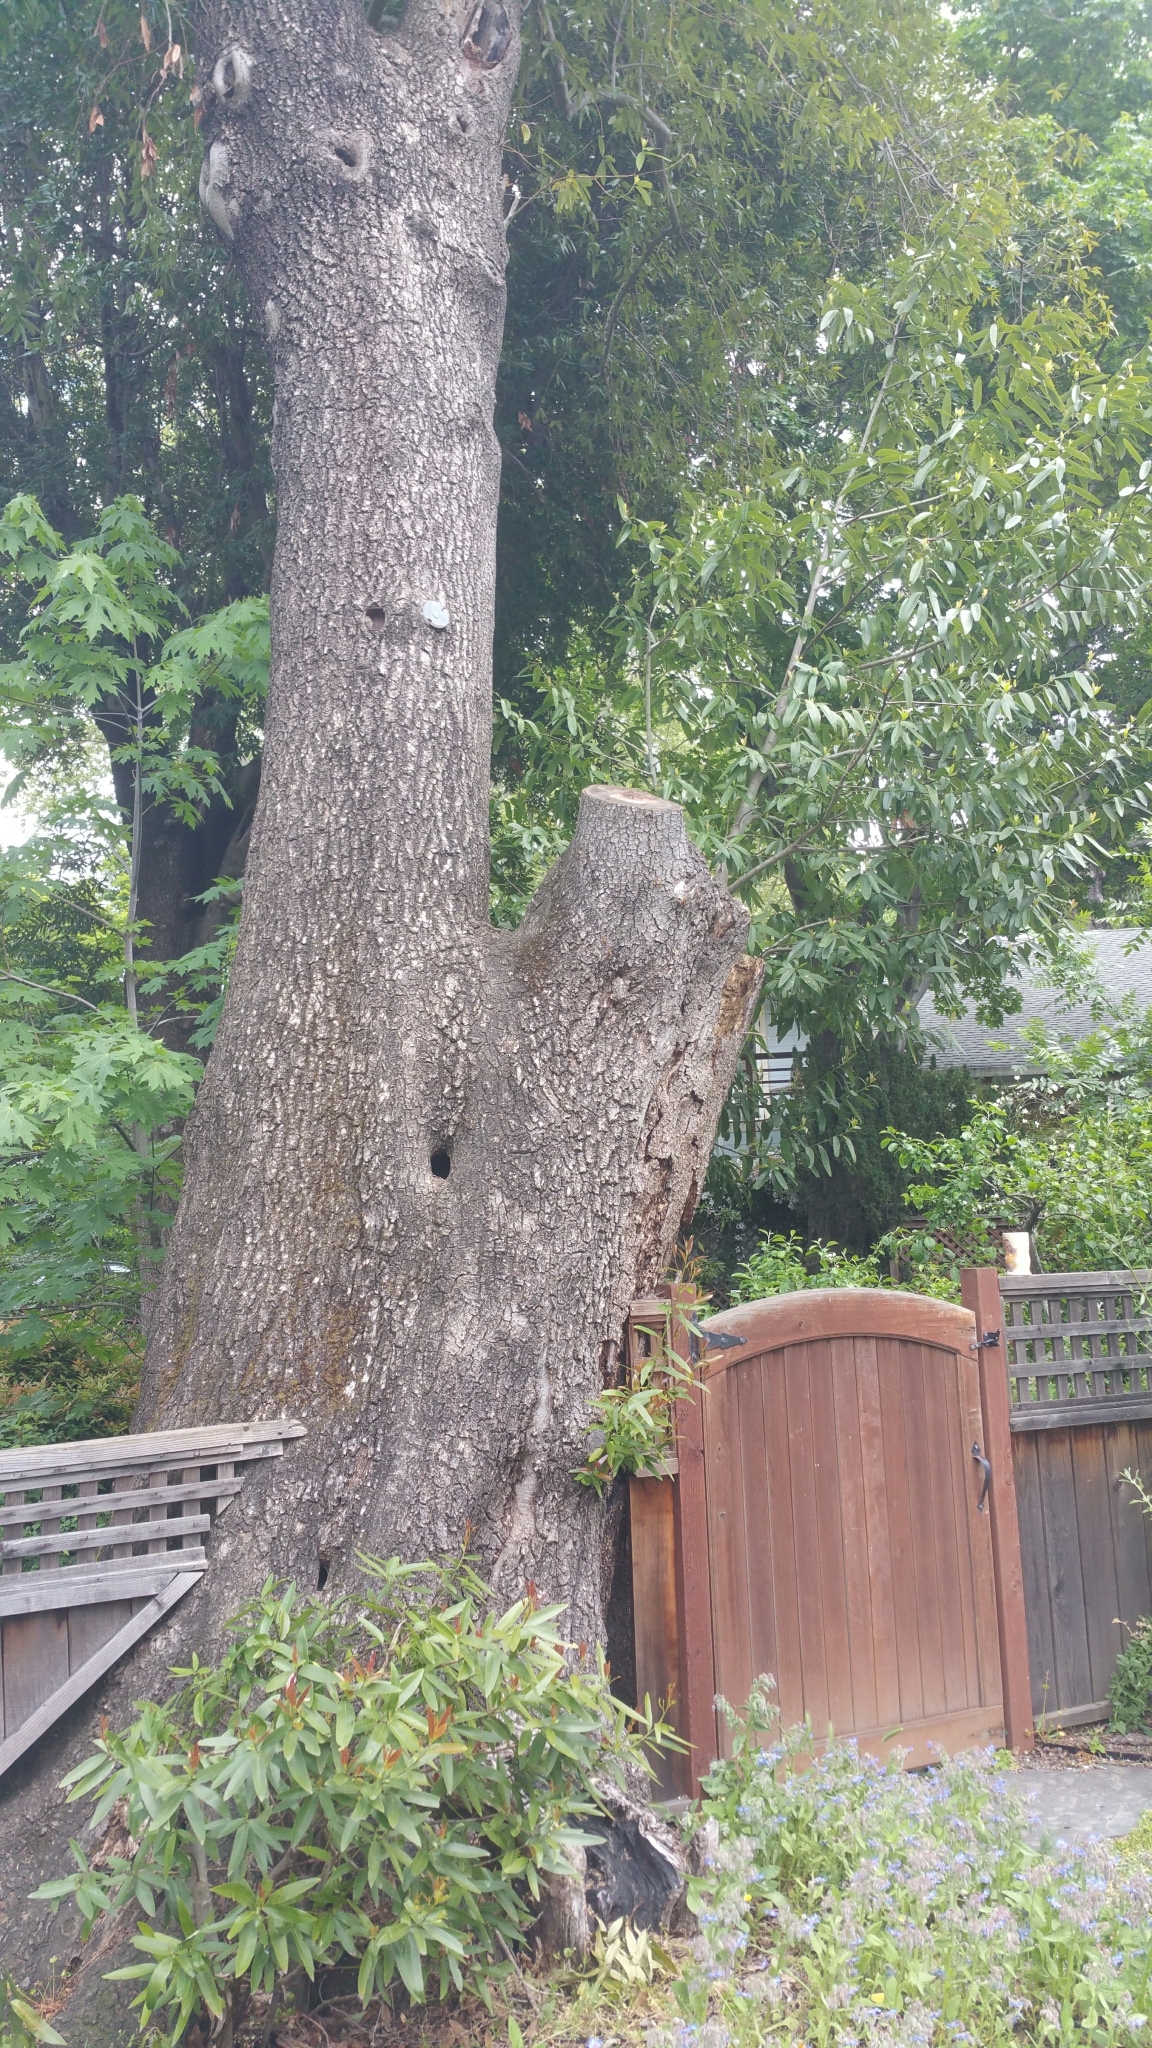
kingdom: Plantae
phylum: Tracheophyta
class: Magnoliopsida
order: Laurales
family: Lauraceae
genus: Umbellularia
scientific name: Umbellularia californica
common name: California bay
